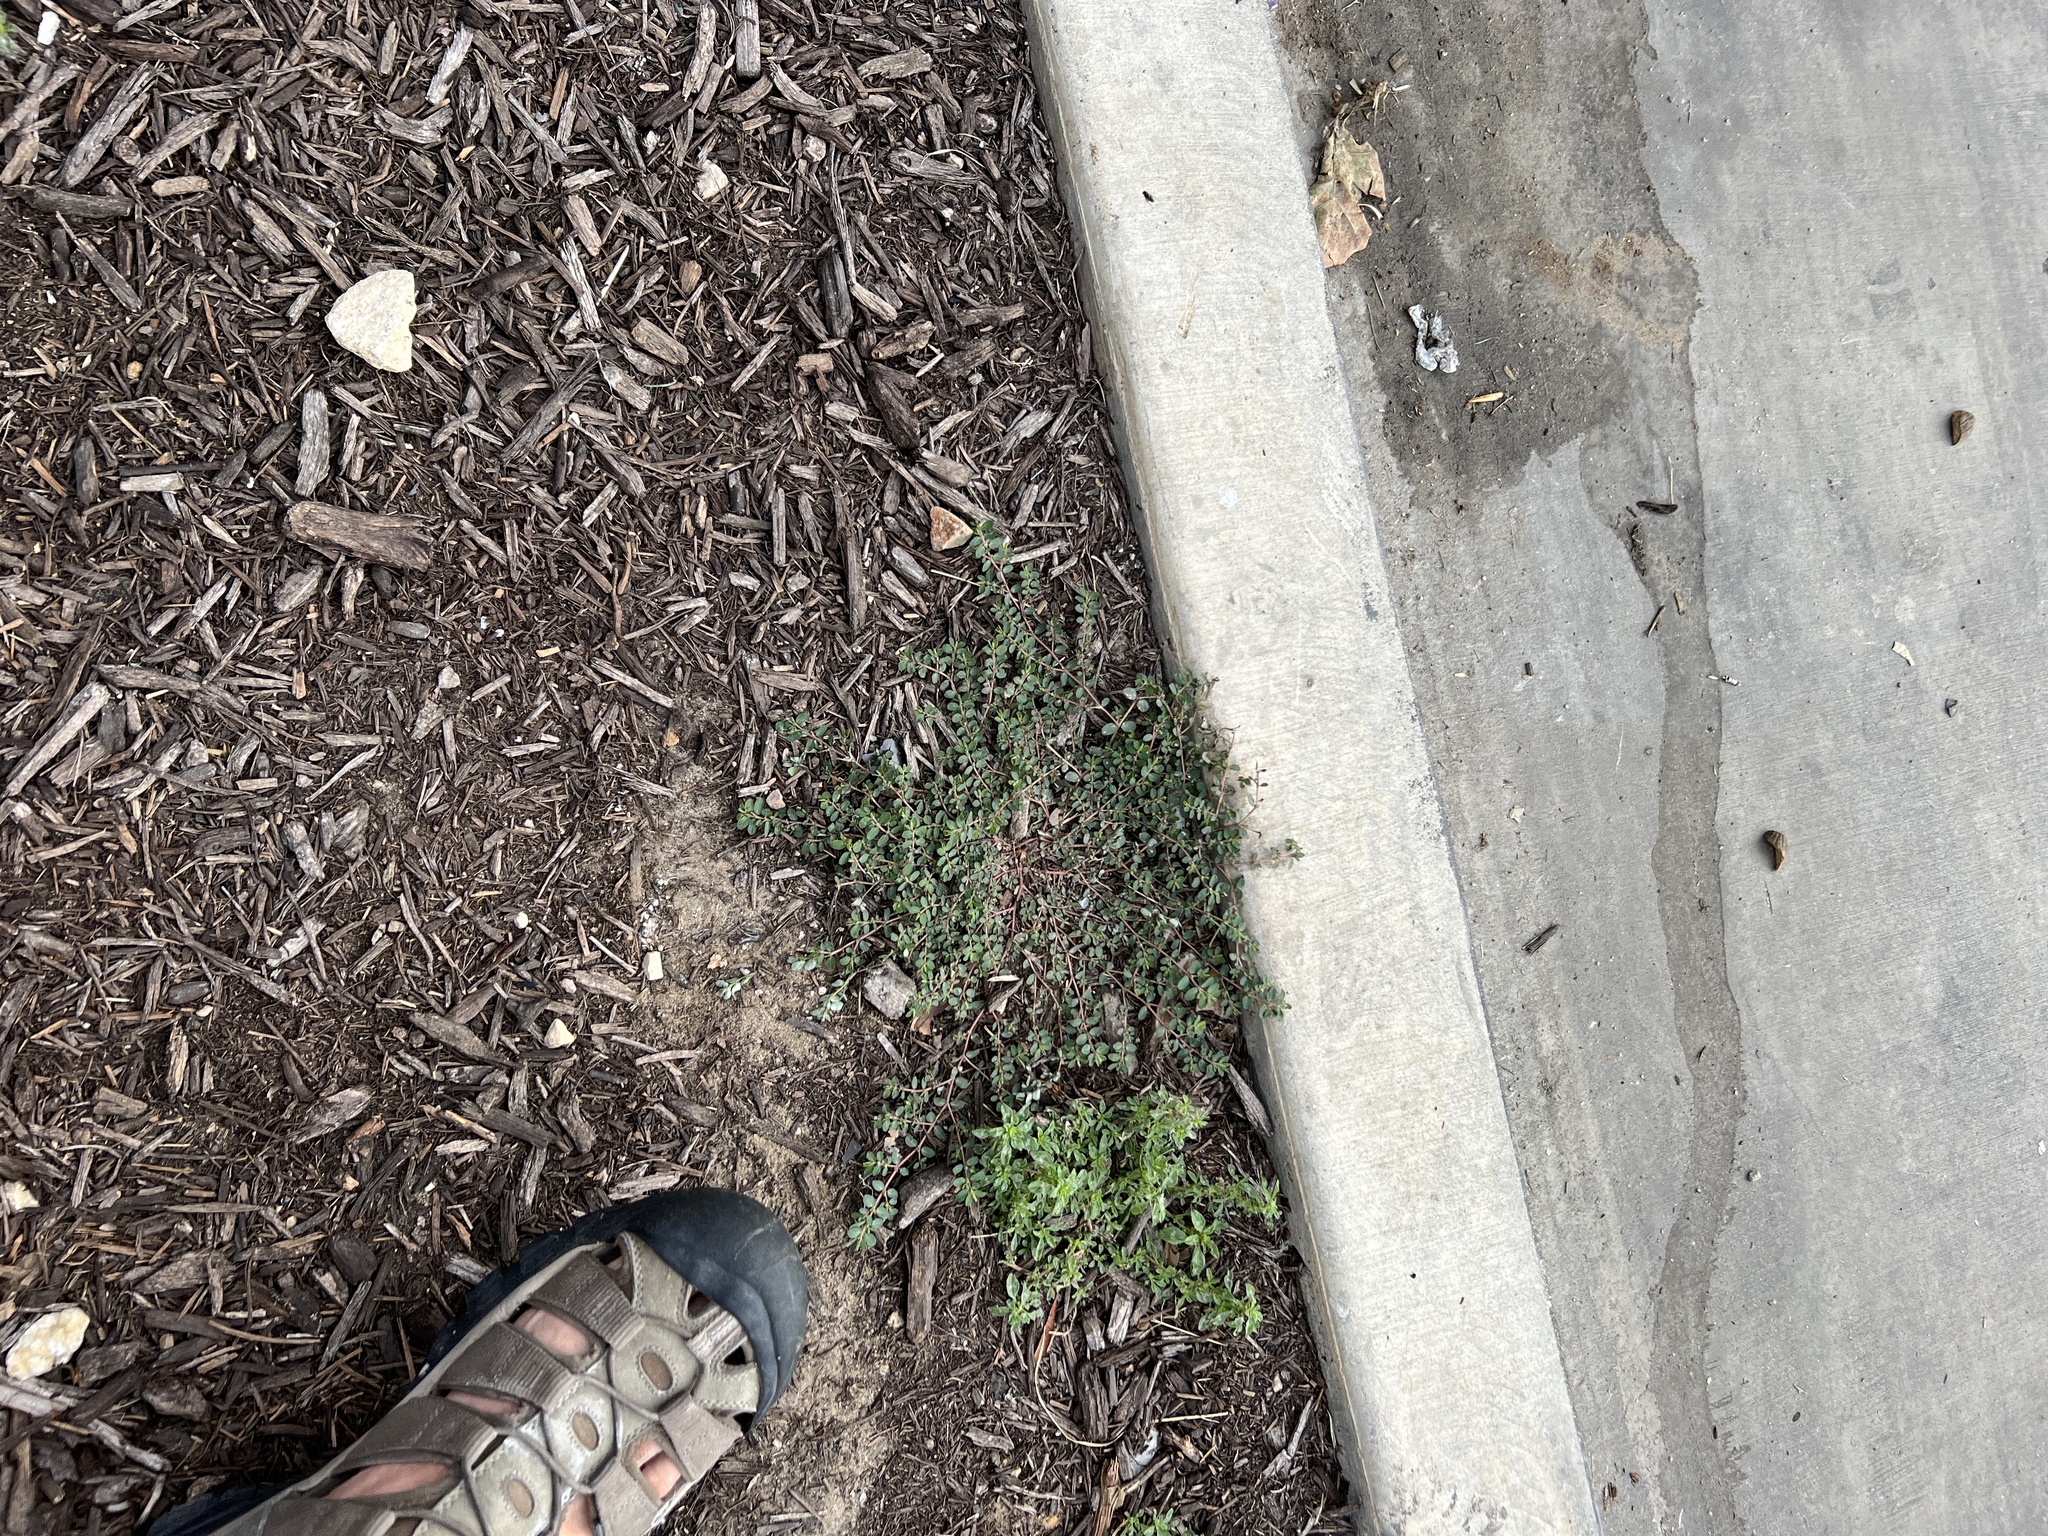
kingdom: Plantae
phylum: Tracheophyta
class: Magnoliopsida
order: Malpighiales
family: Euphorbiaceae
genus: Euphorbia
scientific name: Euphorbia prostrata
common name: Prostrate sandmat
